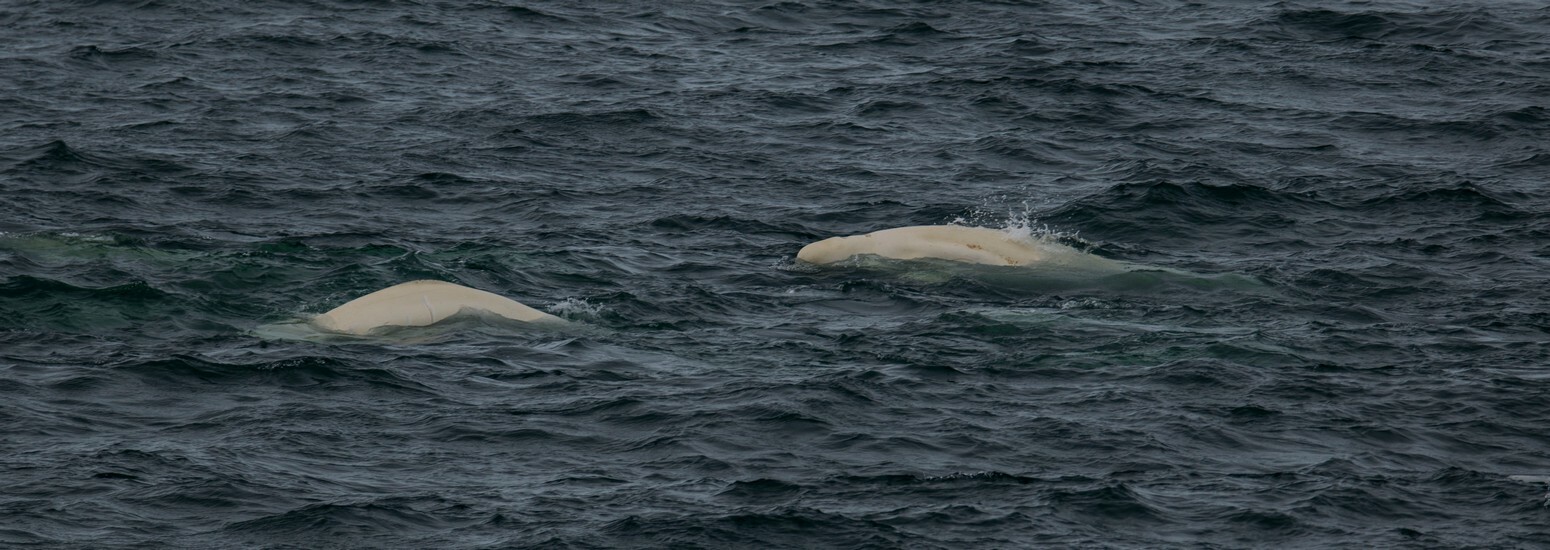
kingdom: Animalia
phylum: Chordata
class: Mammalia
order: Cetacea
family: Monodontidae
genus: Delphinapterus
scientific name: Delphinapterus leucas
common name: Beluga
